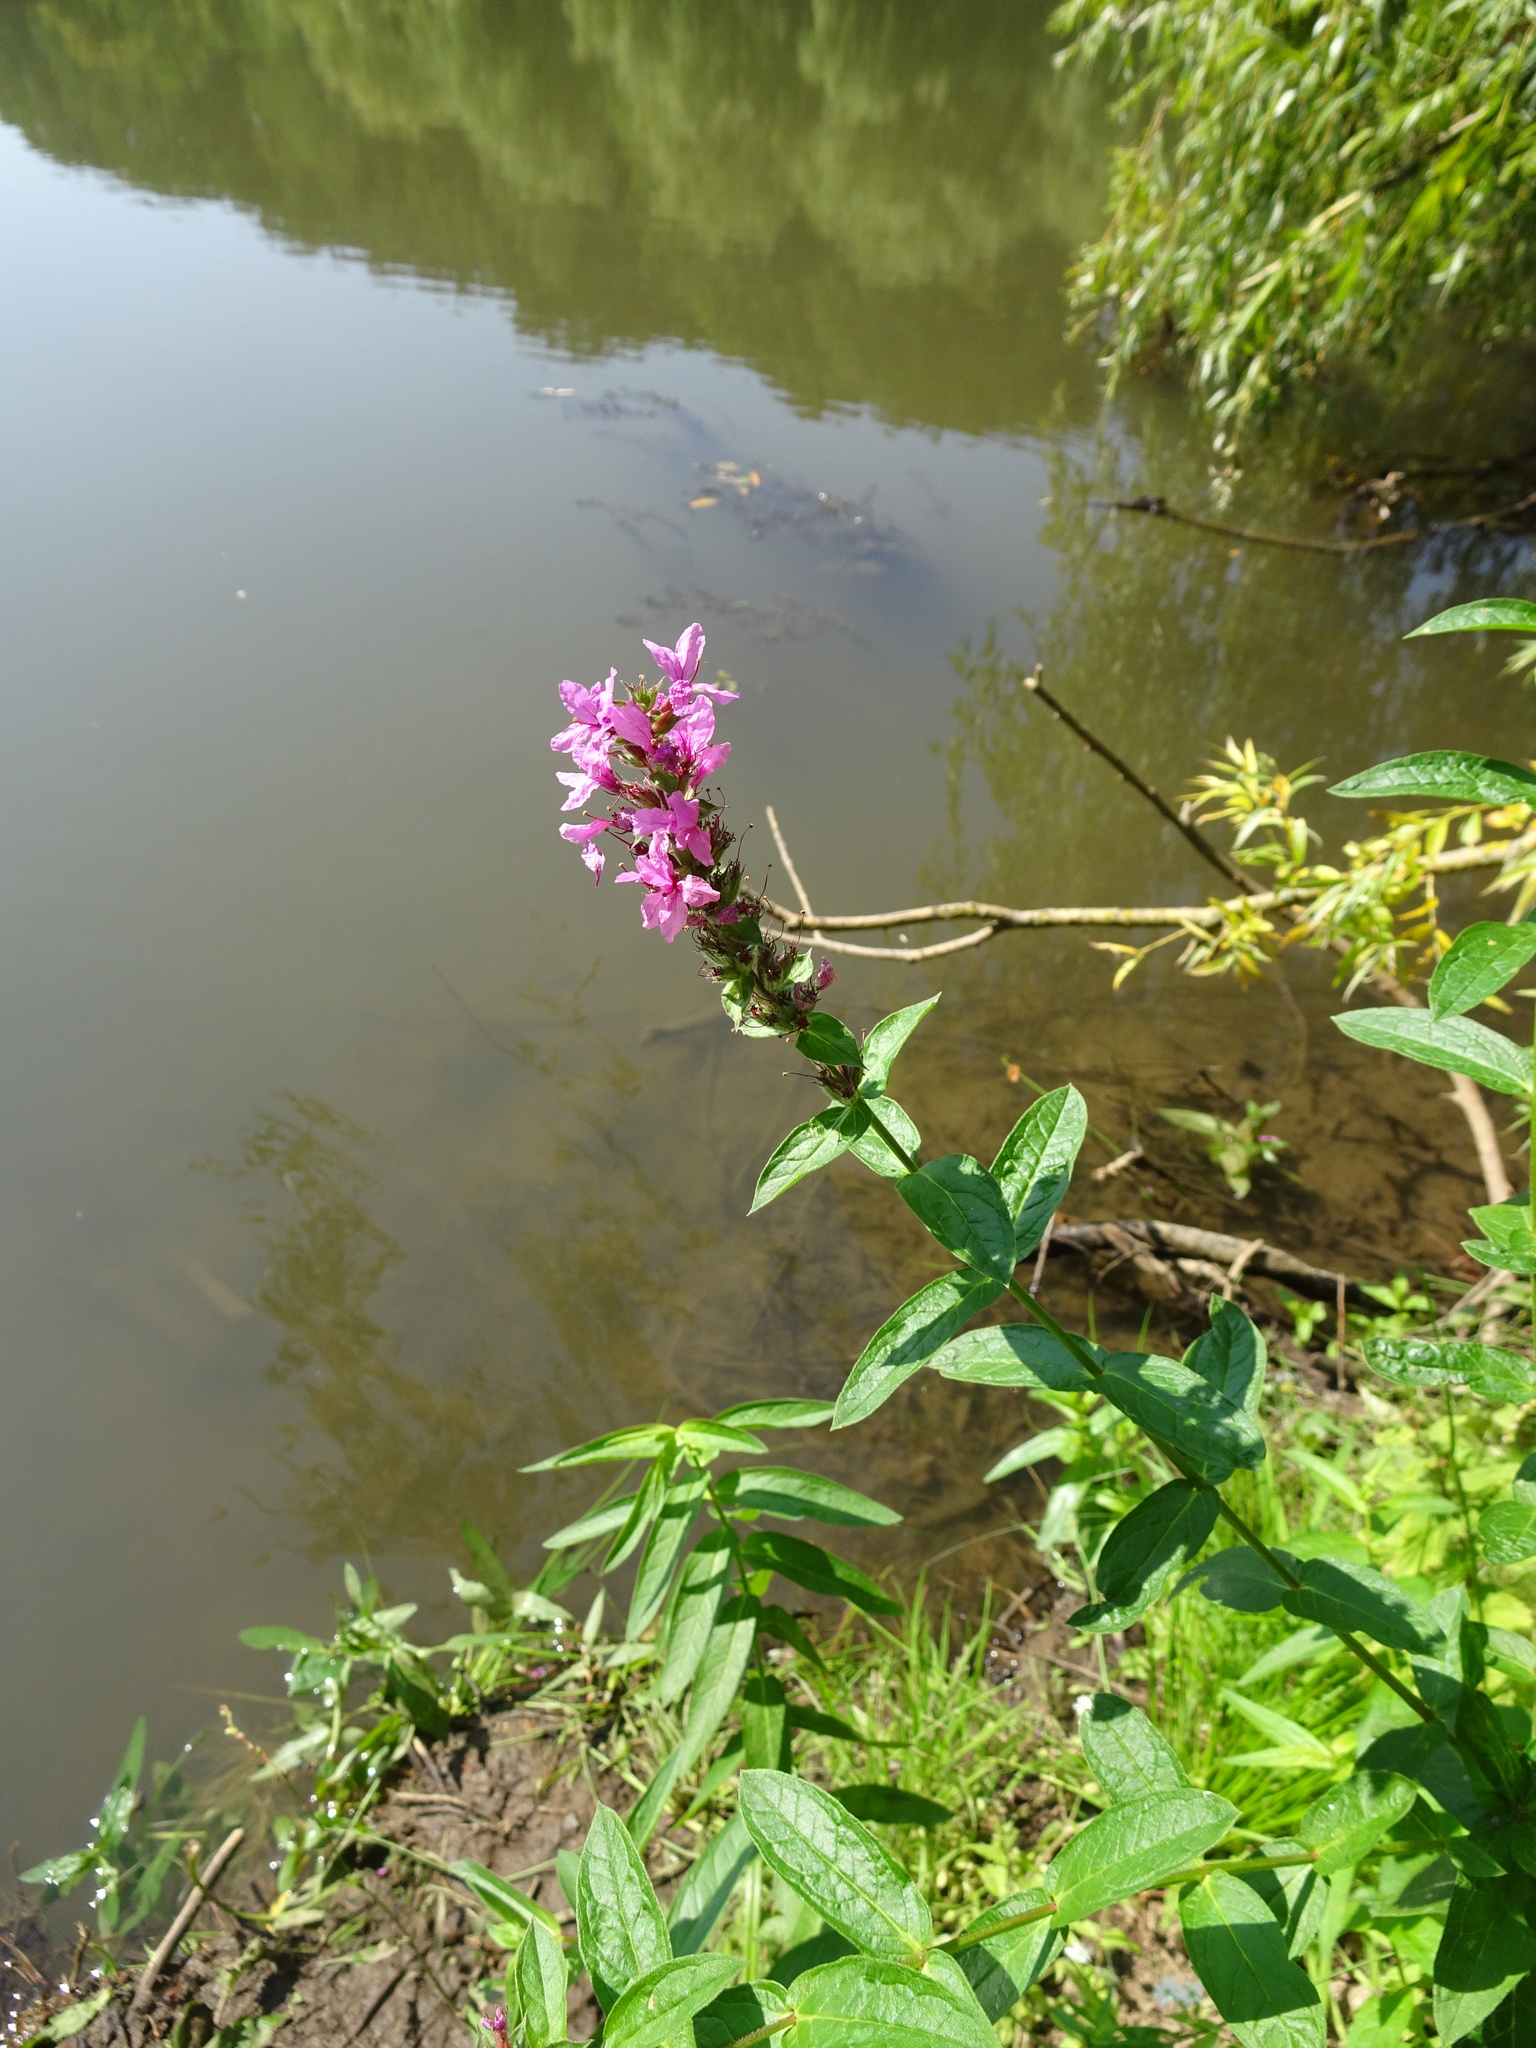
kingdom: Plantae
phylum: Tracheophyta
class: Magnoliopsida
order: Myrtales
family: Lythraceae
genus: Lythrum
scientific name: Lythrum salicaria
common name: Purple loosestrife
